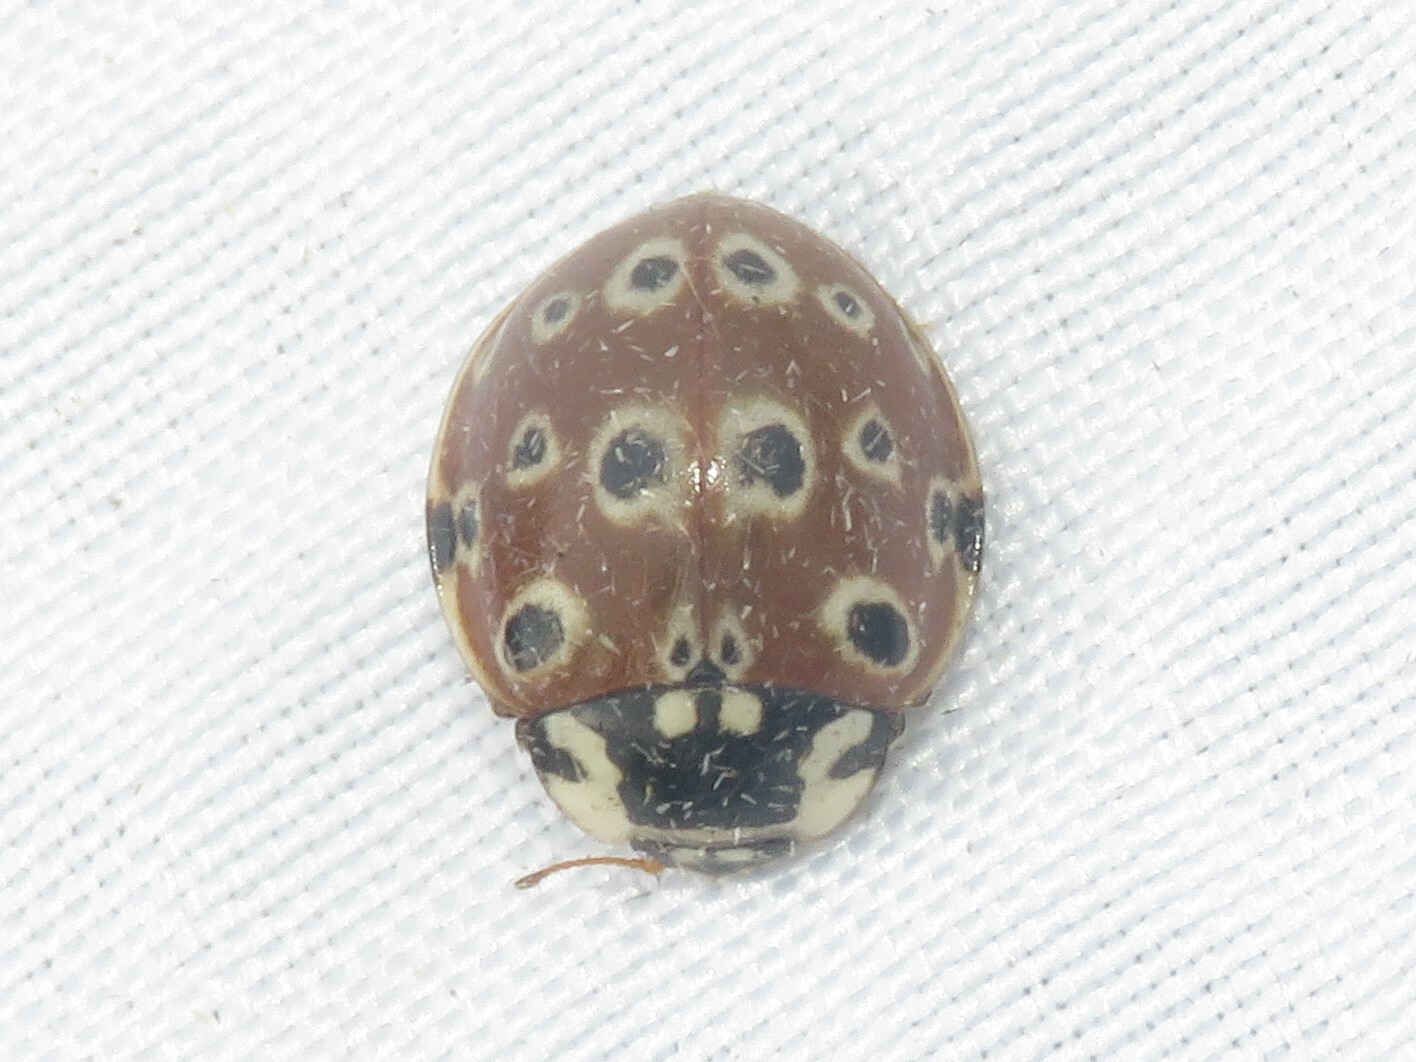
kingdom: Animalia
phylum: Arthropoda
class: Insecta
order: Coleoptera
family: Coccinellidae
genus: Anatis
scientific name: Anatis mali
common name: Eye-spotted lady beetle
